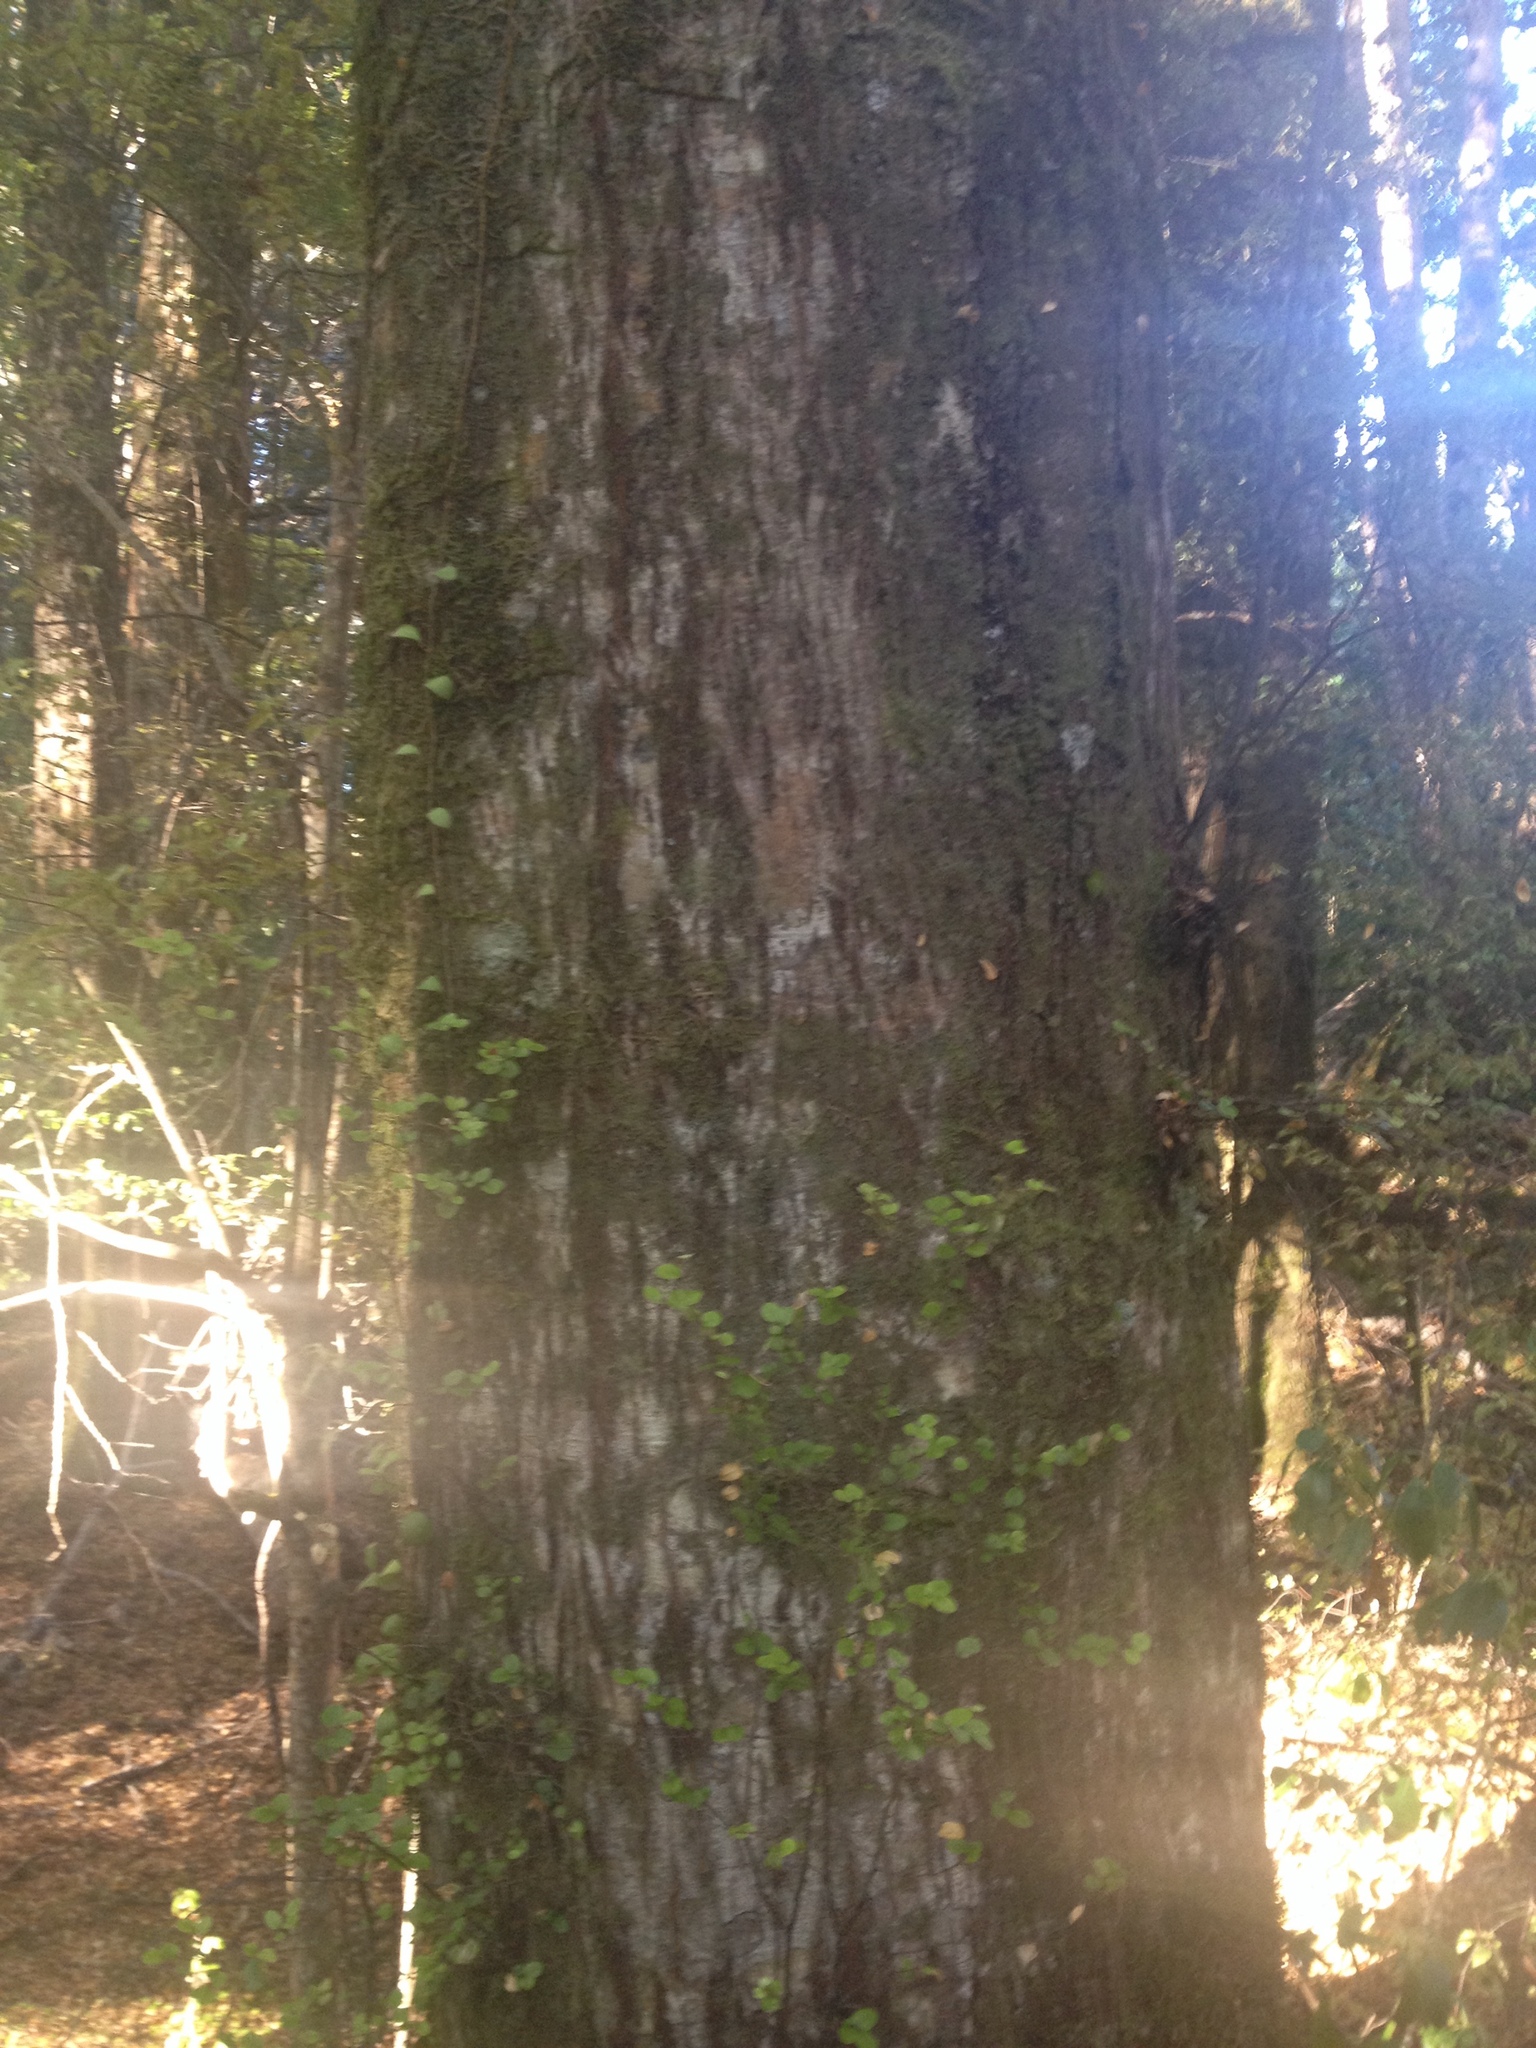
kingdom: Plantae
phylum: Tracheophyta
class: Magnoliopsida
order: Fagales
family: Nothofagaceae
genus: Nothofagus
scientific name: Nothofagus cliffortioides
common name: Mountain beech
